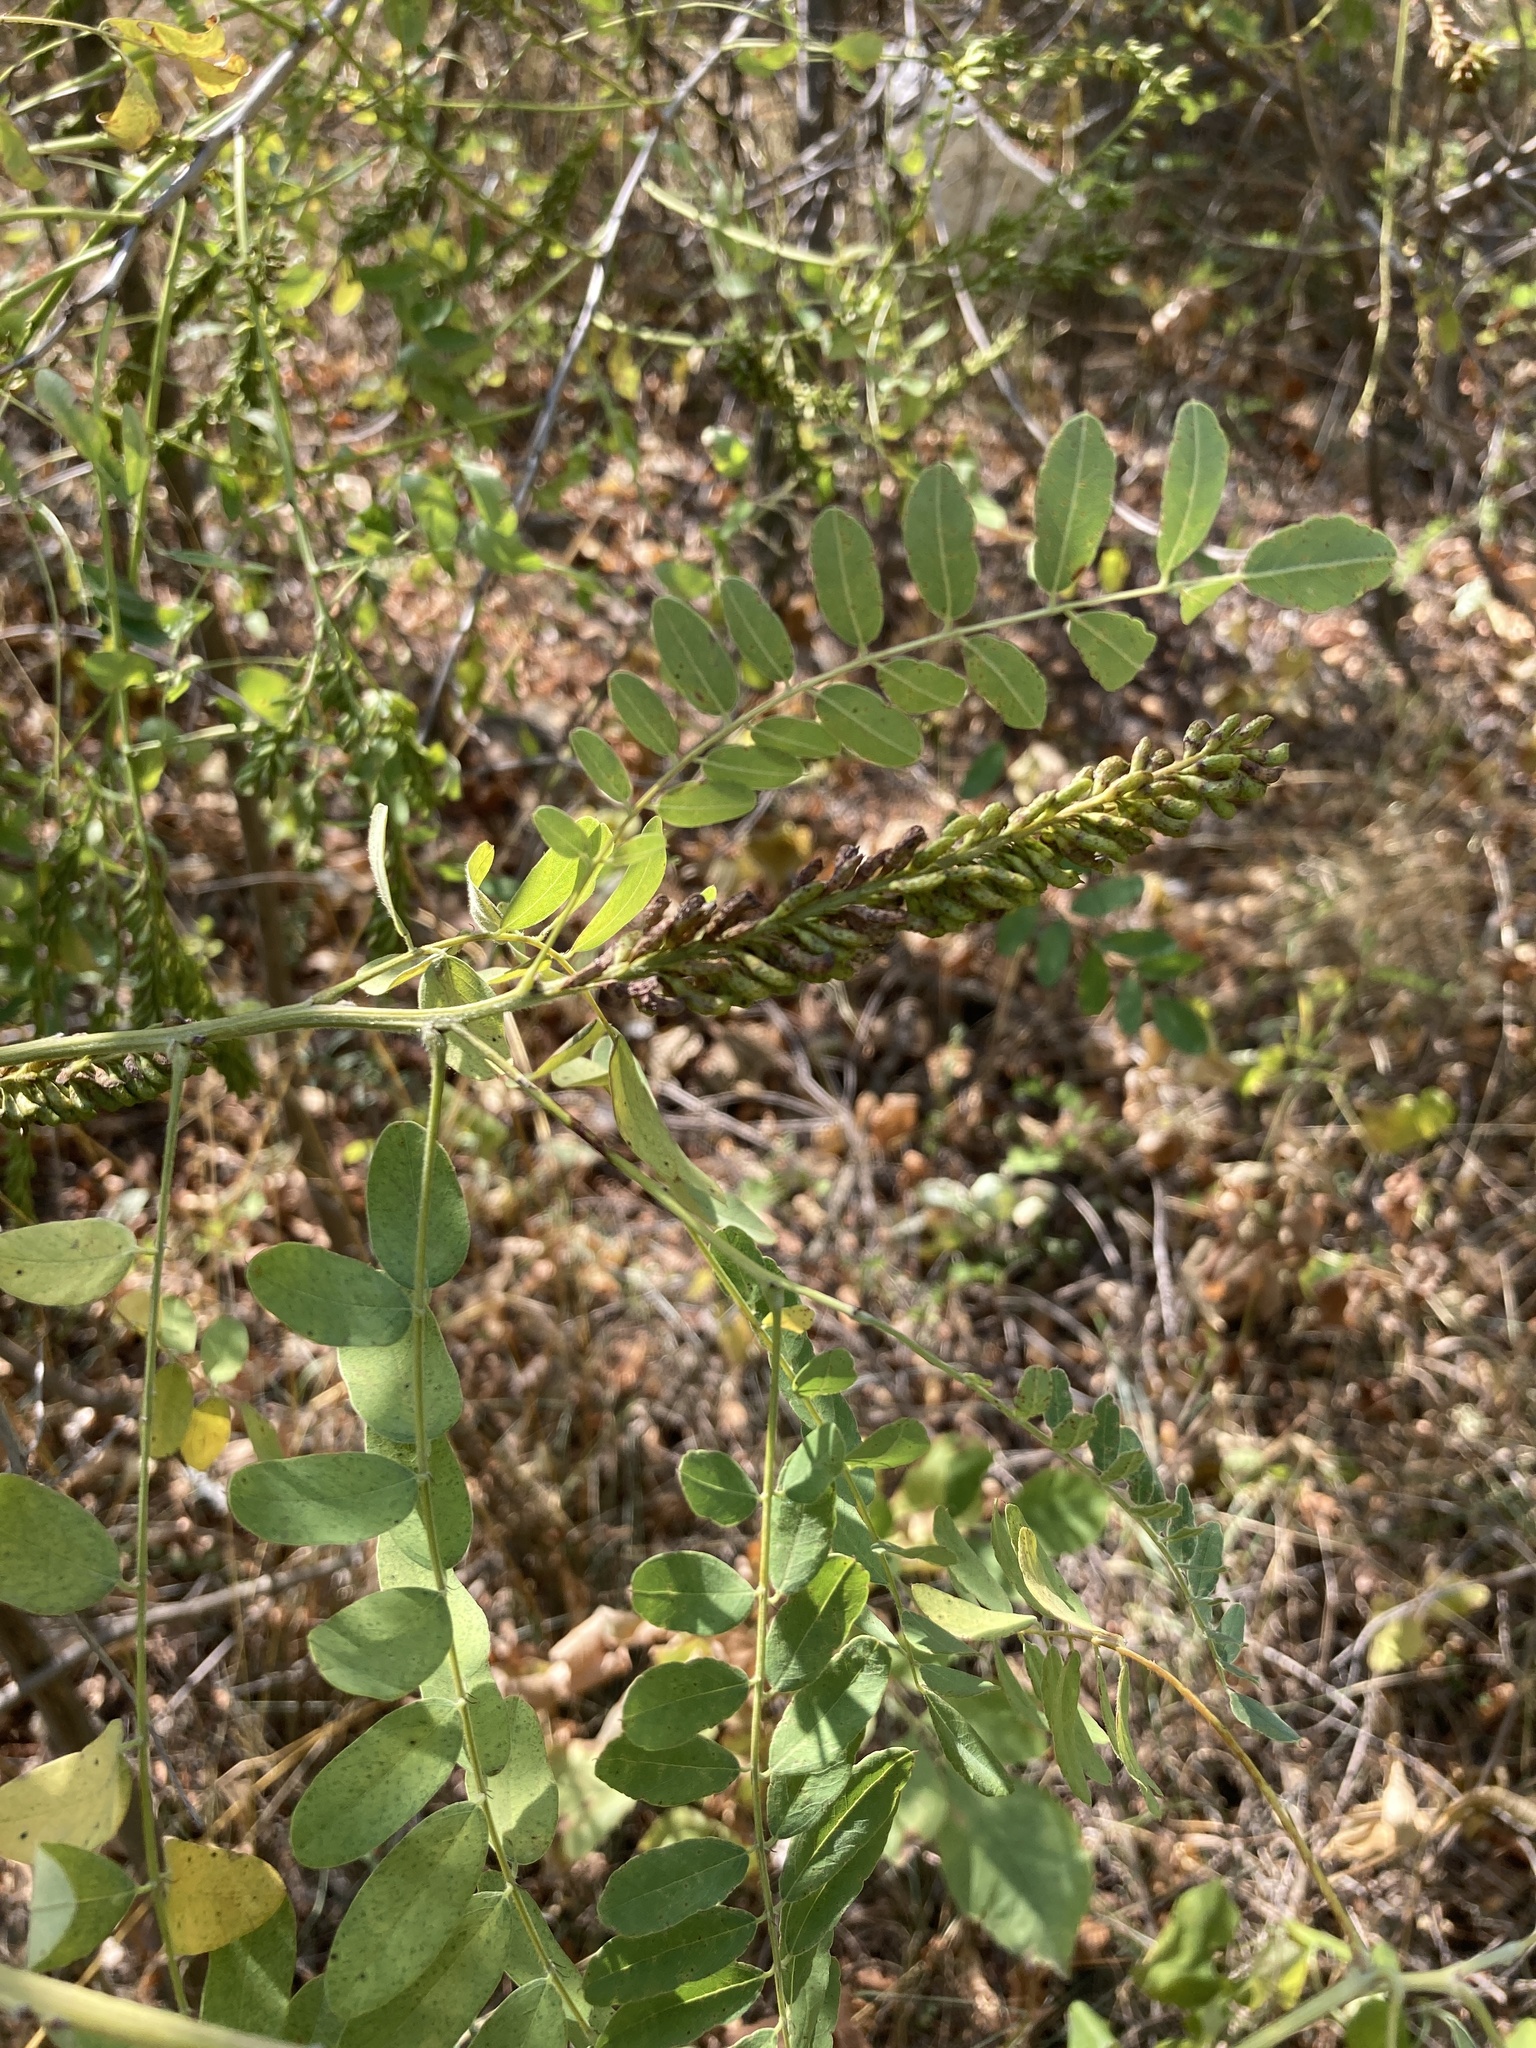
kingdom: Plantae
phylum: Tracheophyta
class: Magnoliopsida
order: Fabales
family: Fabaceae
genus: Amorpha
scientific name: Amorpha fruticosa
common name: False indigo
